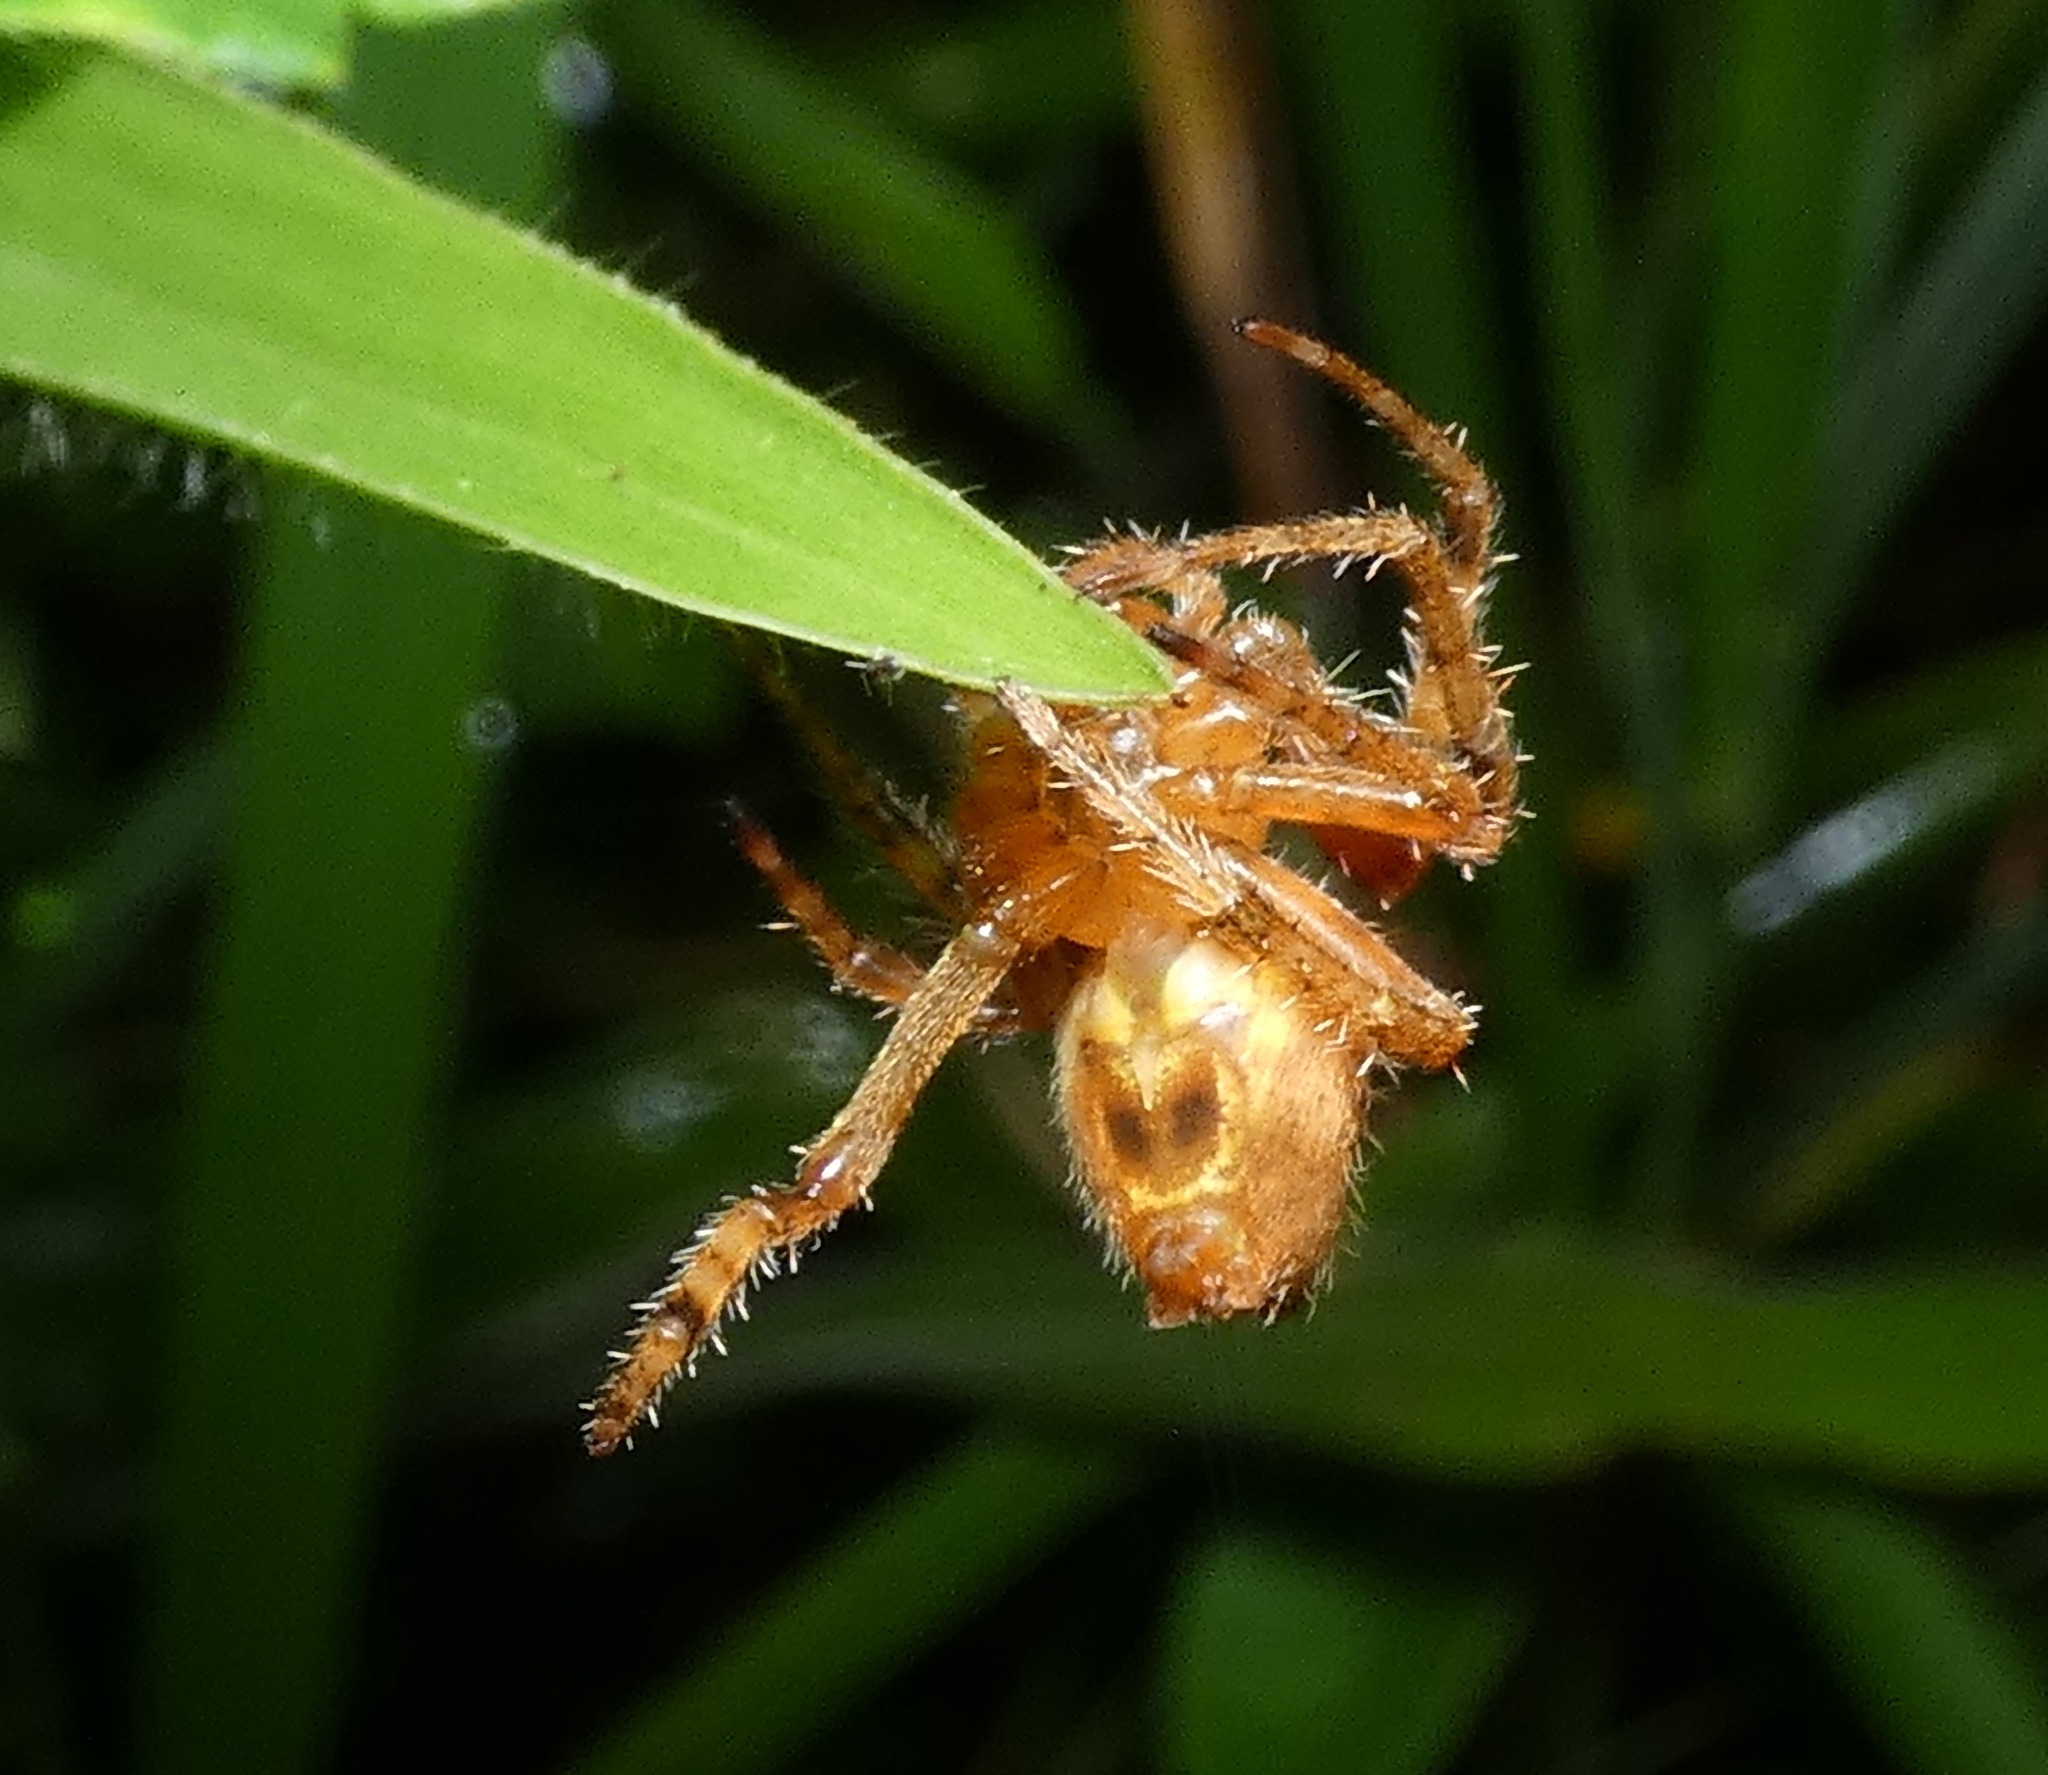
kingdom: Animalia
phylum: Arthropoda
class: Arachnida
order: Araneae
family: Araneidae
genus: Eriophora
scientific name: Eriophora edax
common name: Orb weavers
